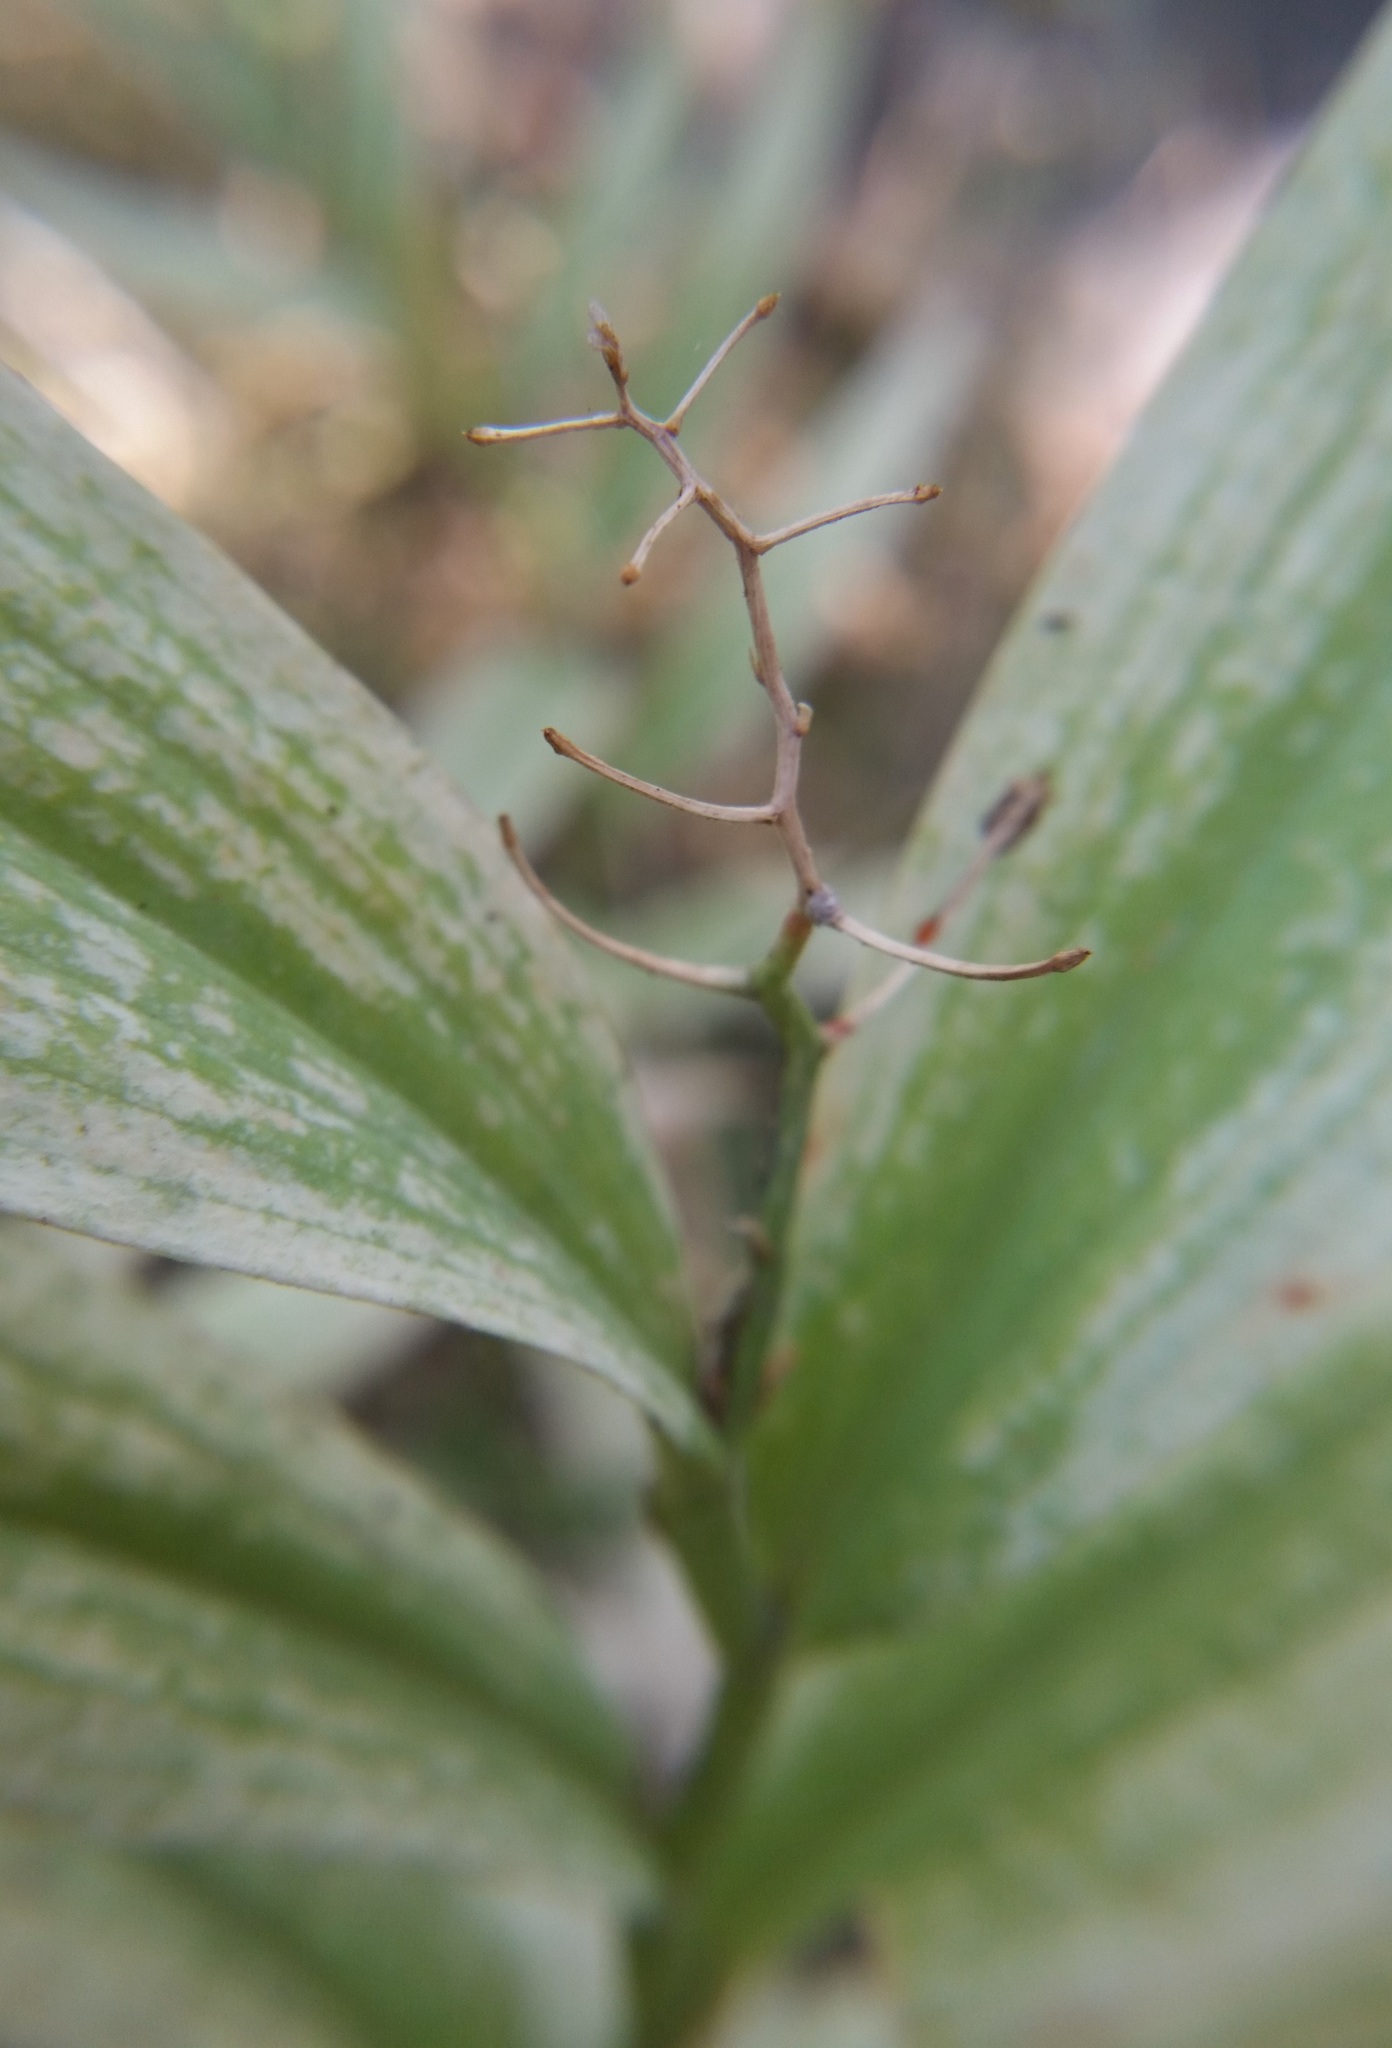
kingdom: Plantae
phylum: Tracheophyta
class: Liliopsida
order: Asparagales
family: Asparagaceae
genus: Maianthemum
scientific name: Maianthemum stellatum
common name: Little false solomon's seal
